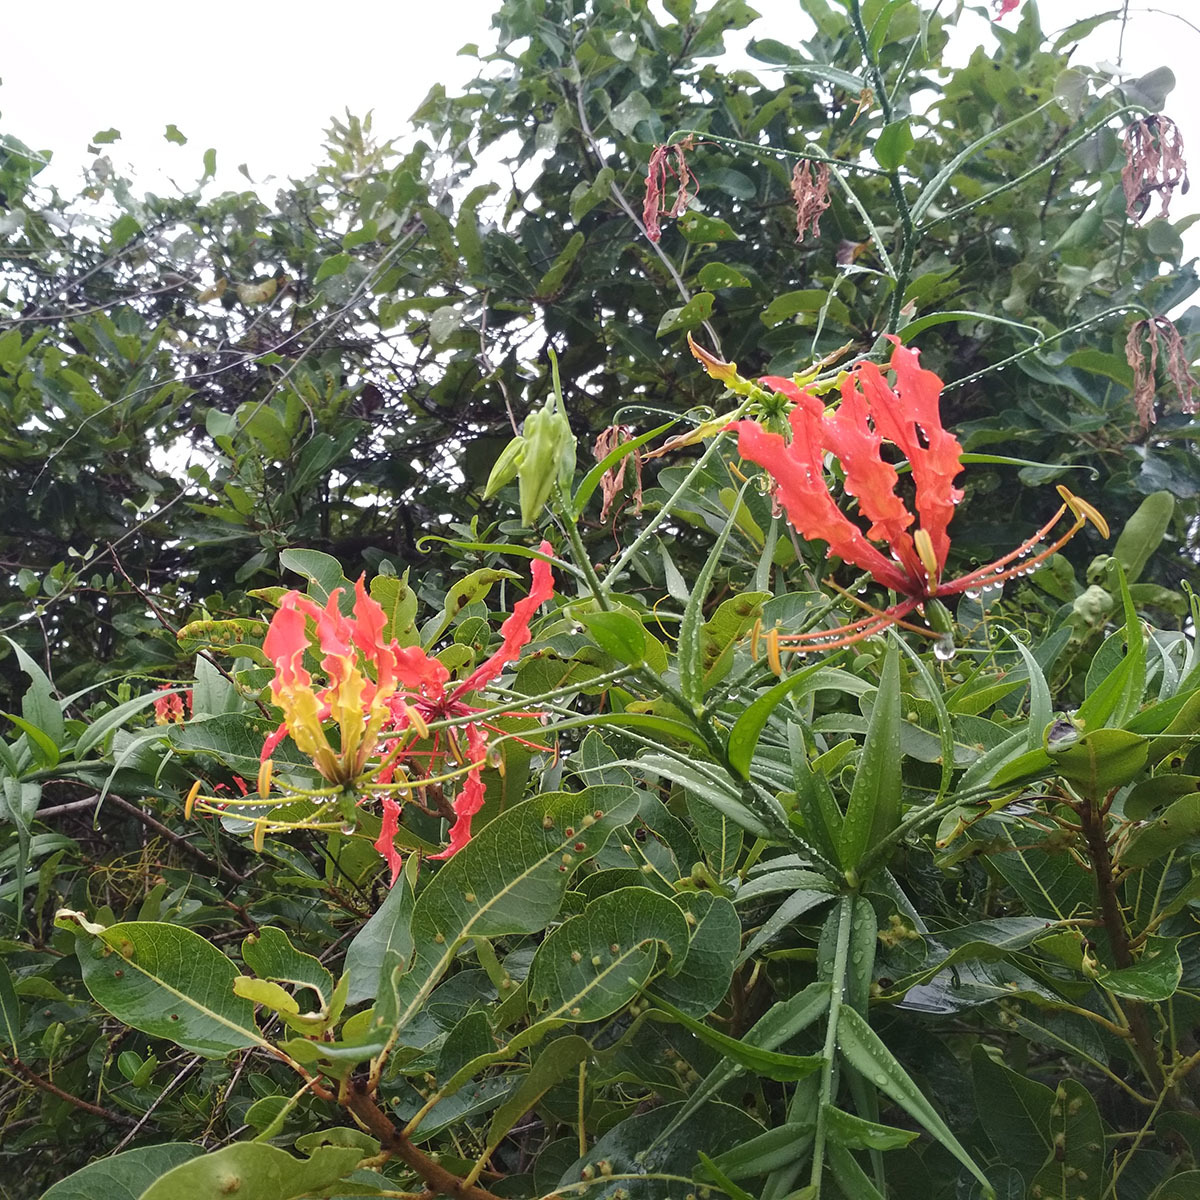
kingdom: Plantae
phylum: Tracheophyta
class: Liliopsida
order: Liliales
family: Colchicaceae
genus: Gloriosa
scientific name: Gloriosa superba
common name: Flame lily
